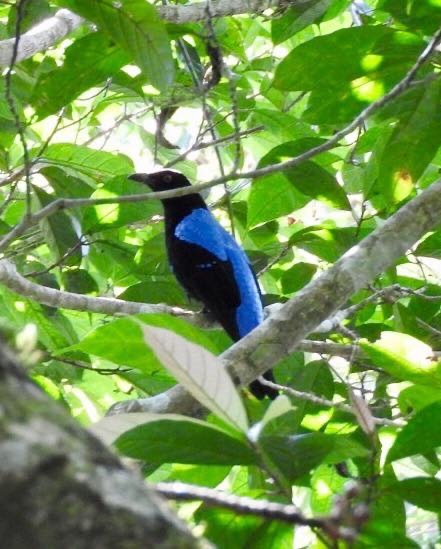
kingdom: Animalia
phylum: Chordata
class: Aves
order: Passeriformes
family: Irenidae
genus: Irena
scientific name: Irena puella
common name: Asian fairy-bluebird
